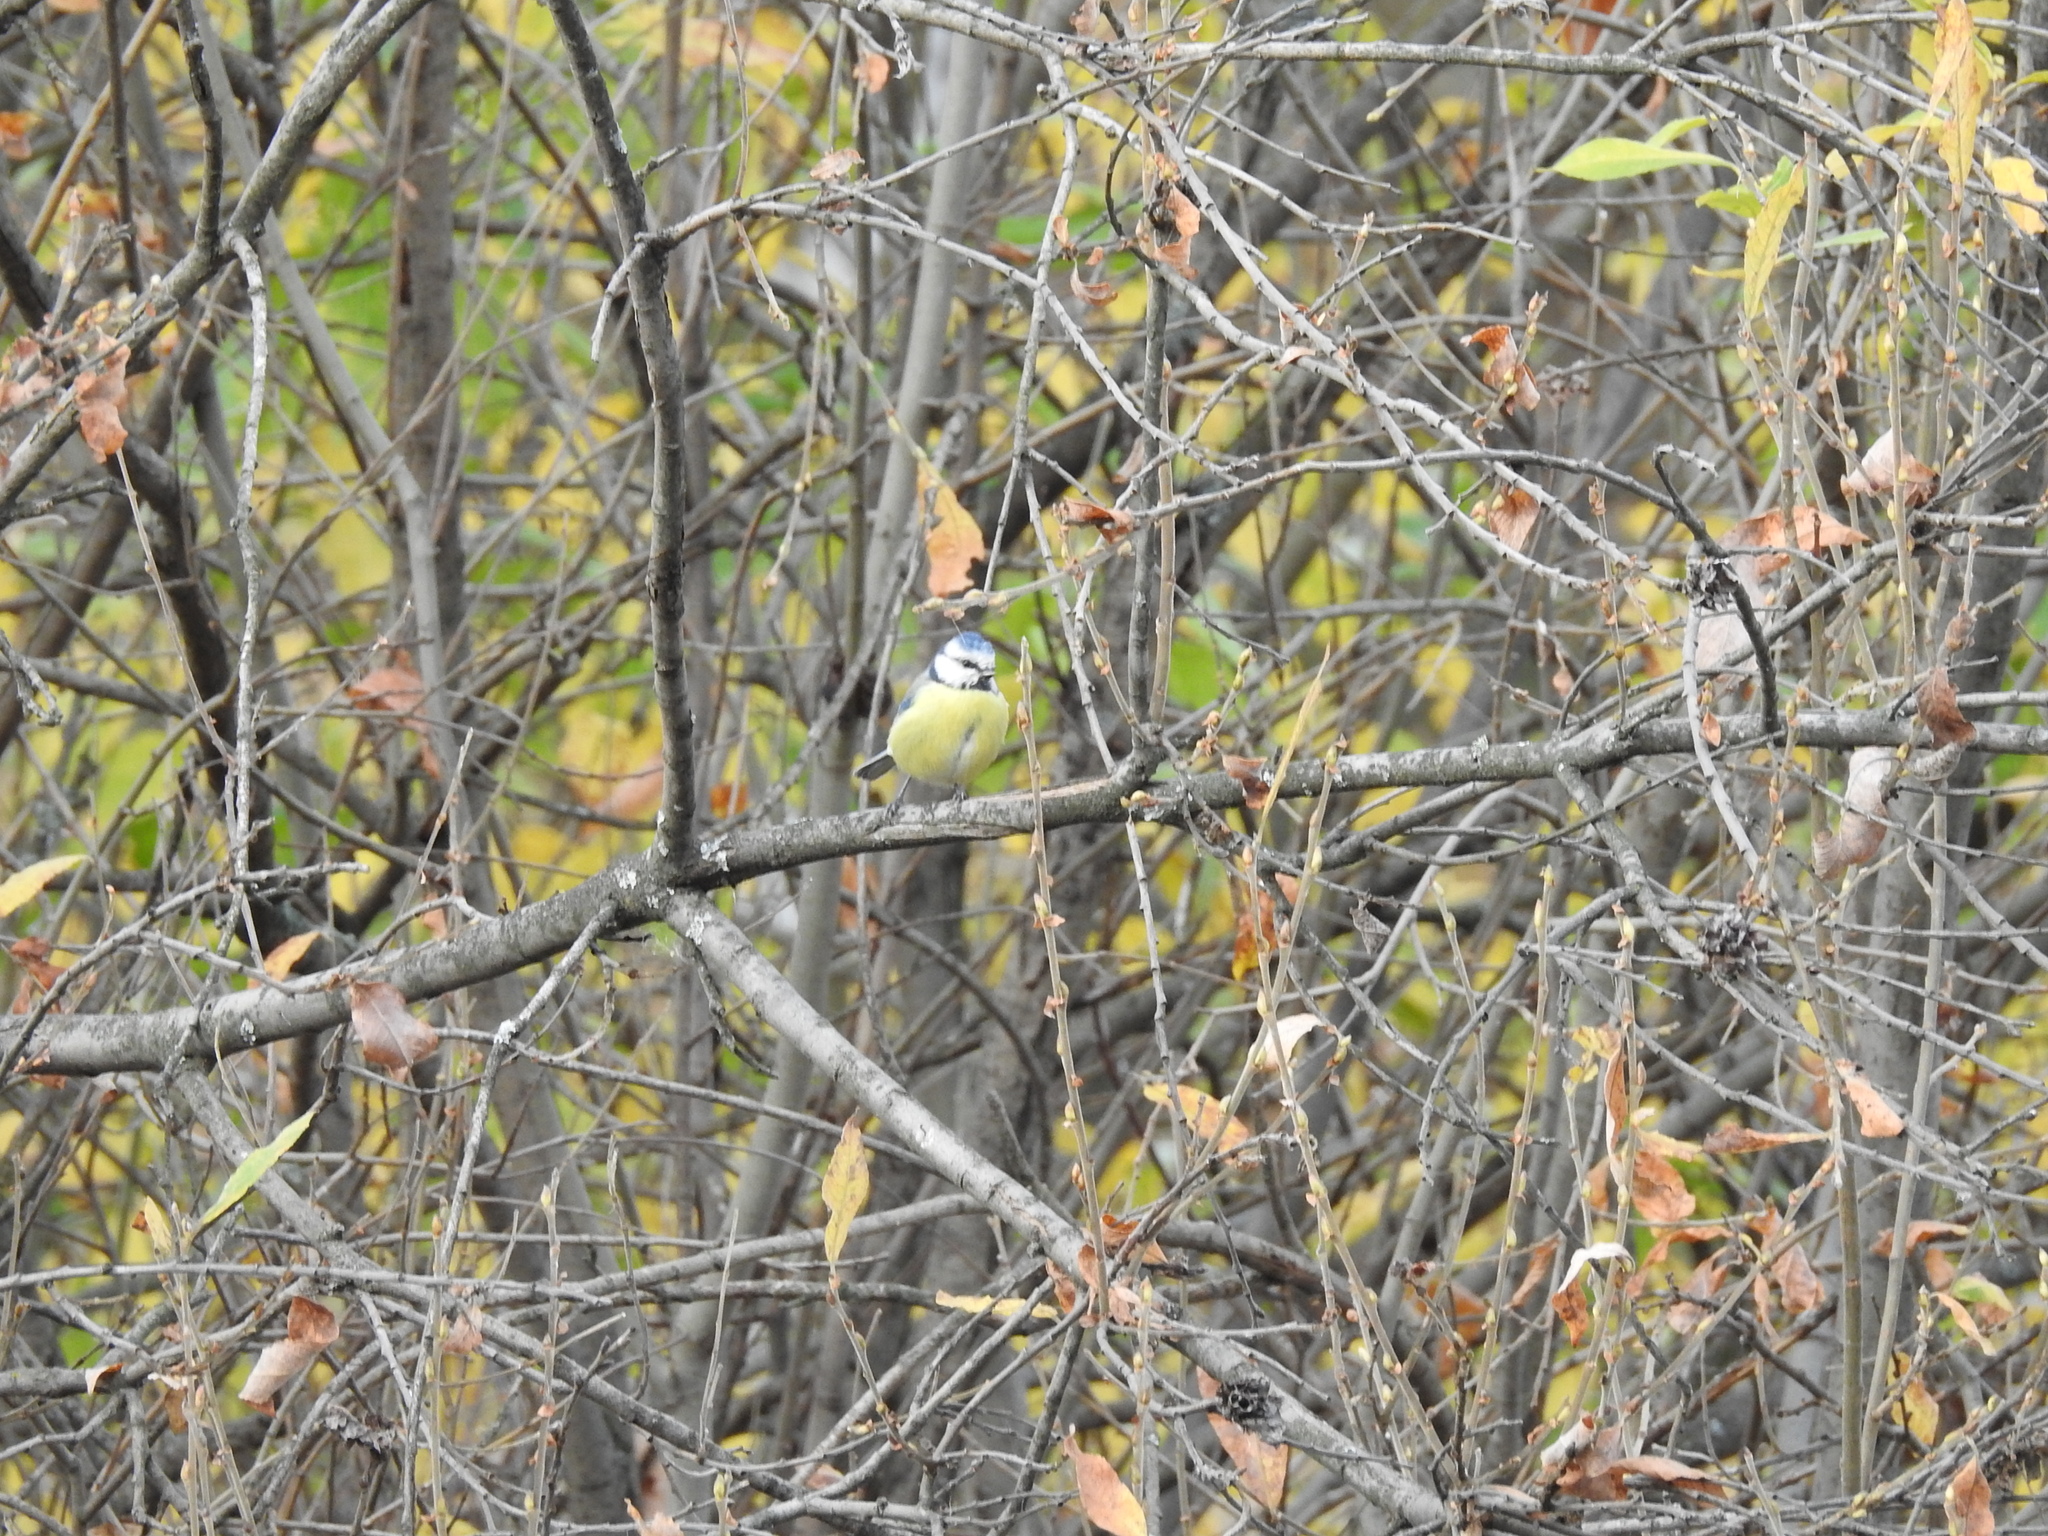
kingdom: Animalia
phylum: Chordata
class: Aves
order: Passeriformes
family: Paridae
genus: Cyanistes
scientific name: Cyanistes caeruleus
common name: Eurasian blue tit
